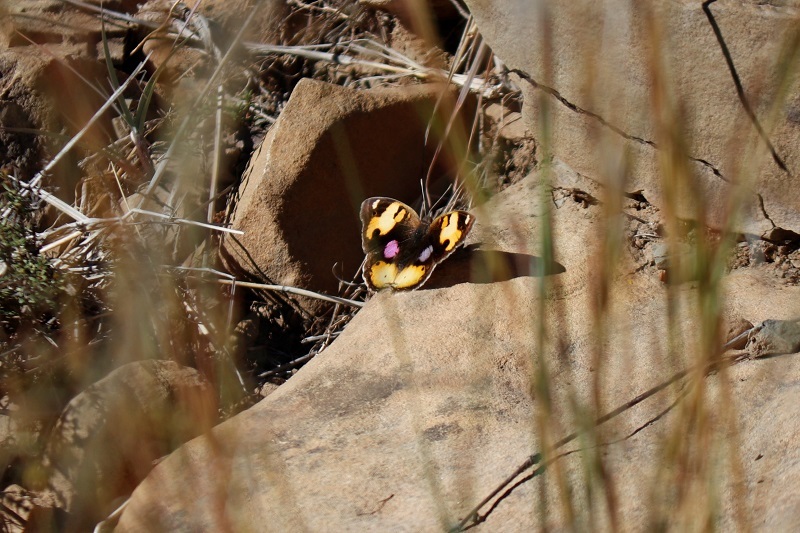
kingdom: Animalia
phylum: Arthropoda
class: Insecta
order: Lepidoptera
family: Nymphalidae
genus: Junonia
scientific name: Junonia hierta
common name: Yellow pansy
